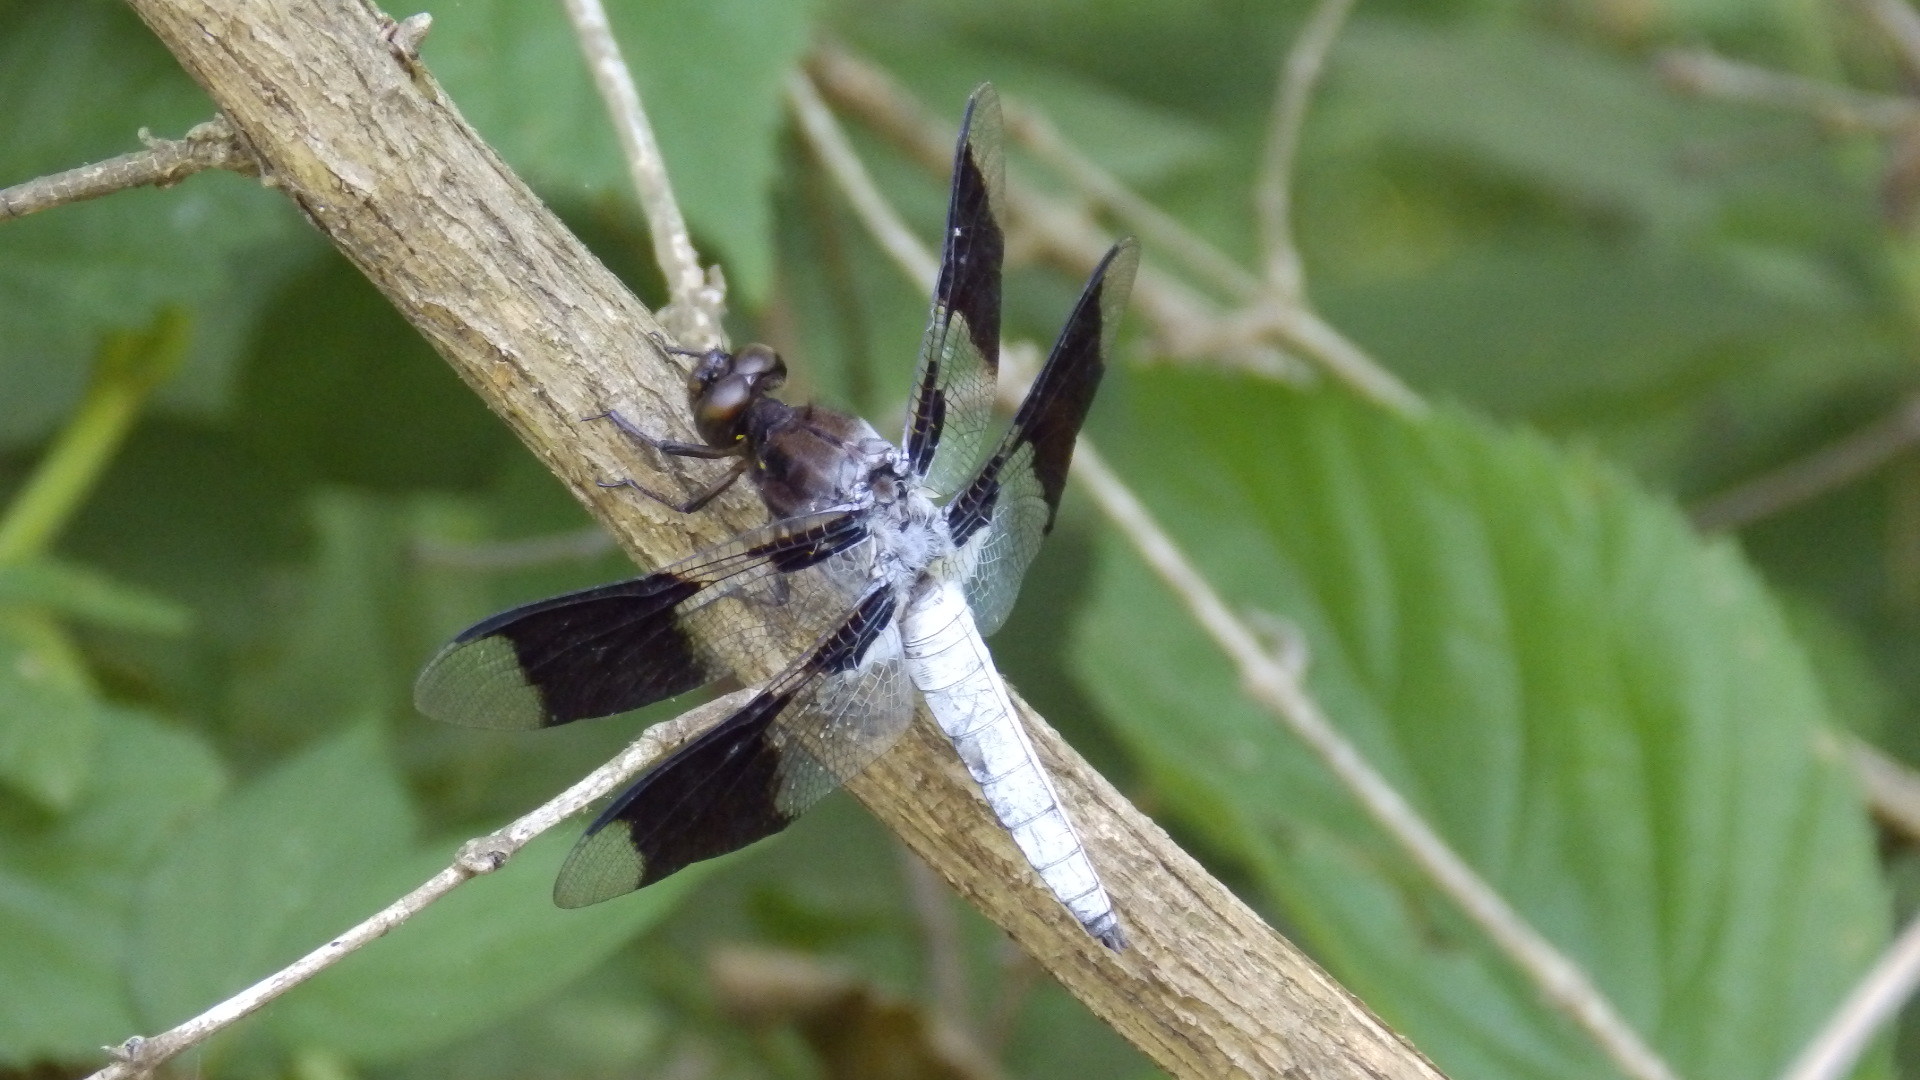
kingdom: Animalia
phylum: Arthropoda
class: Insecta
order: Odonata
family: Libellulidae
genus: Plathemis
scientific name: Plathemis lydia
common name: Common whitetail
